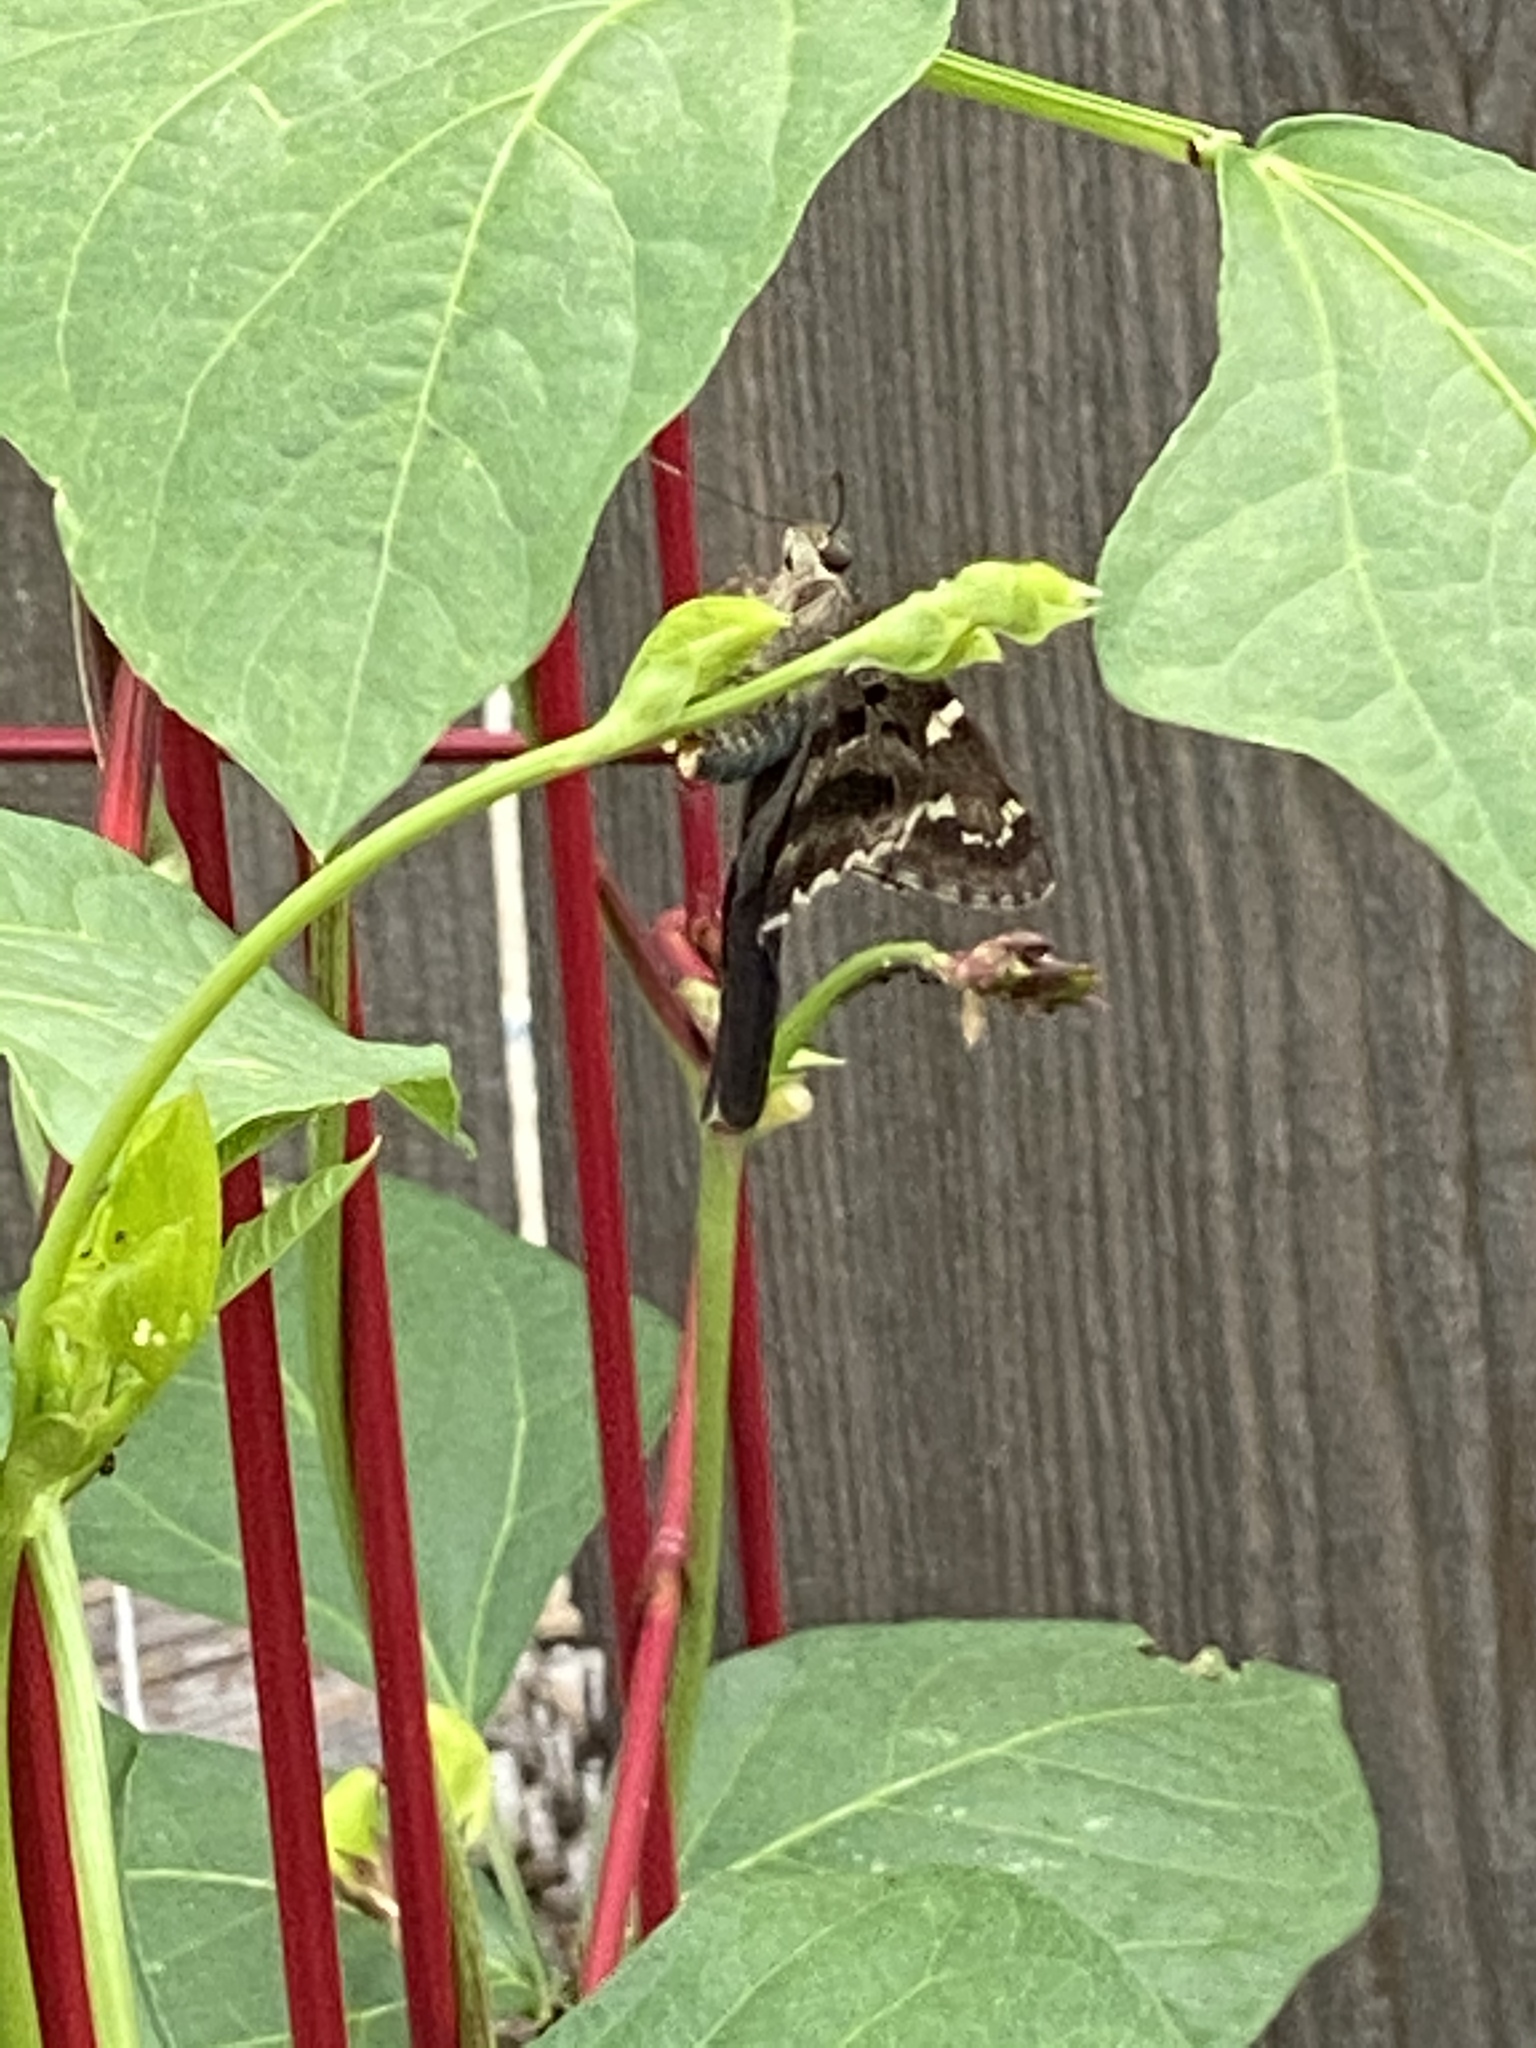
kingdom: Animalia
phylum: Arthropoda
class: Insecta
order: Lepidoptera
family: Hesperiidae
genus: Urbanus
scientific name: Urbanus proteus
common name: Long-tailed skipper
